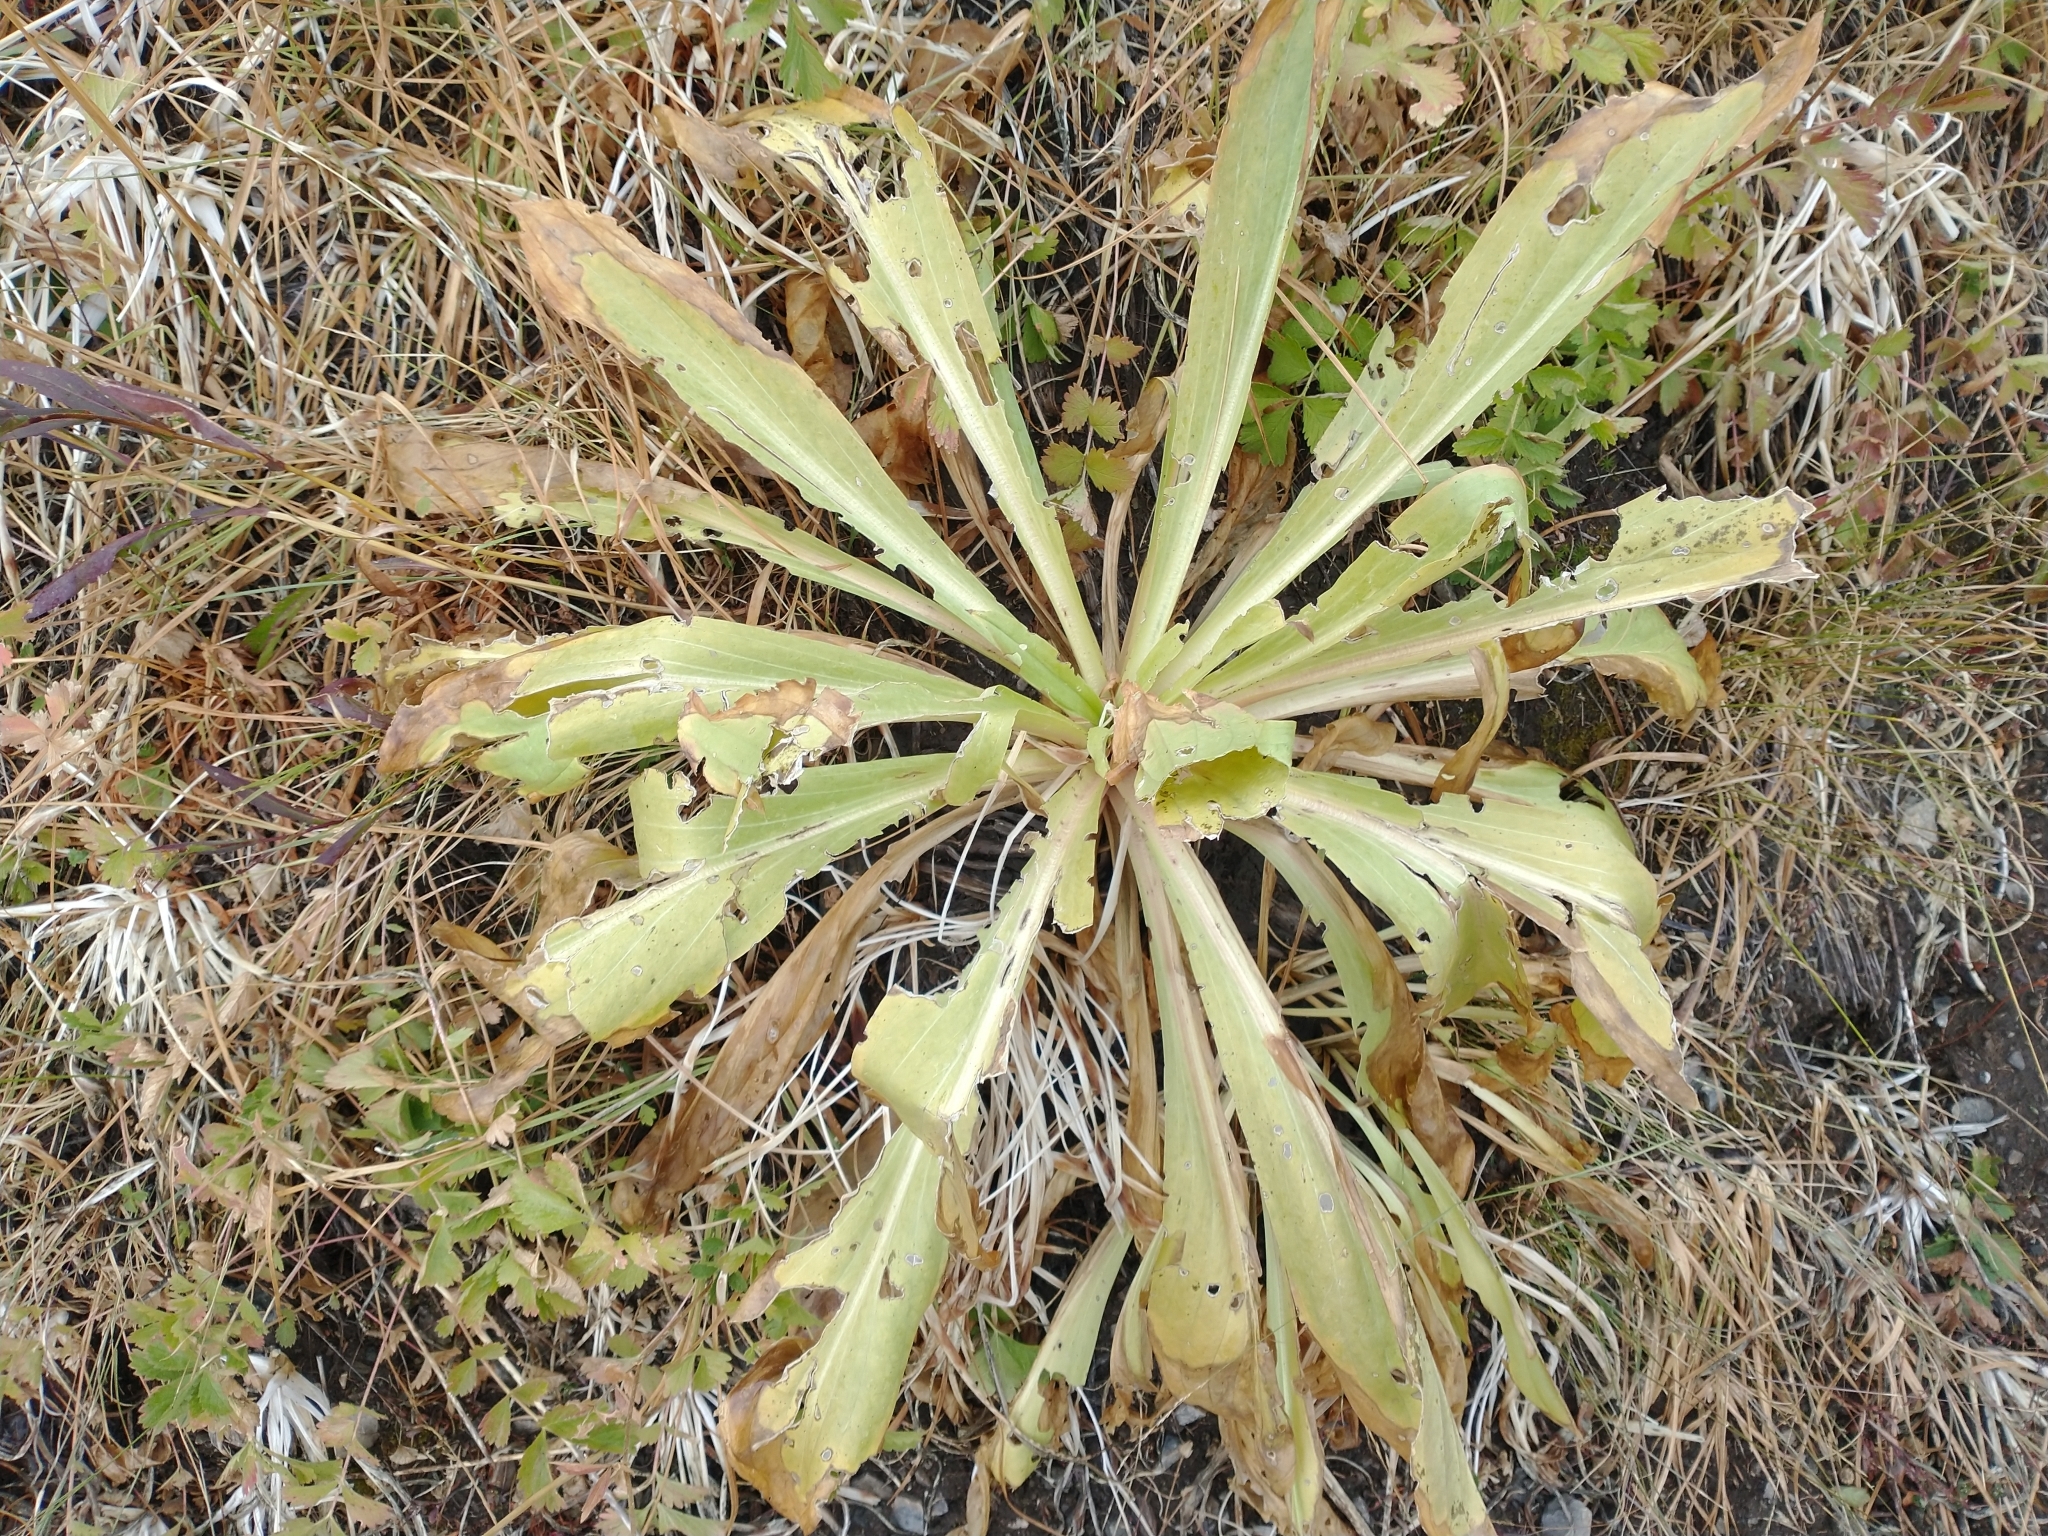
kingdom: Plantae
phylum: Tracheophyta
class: Magnoliopsida
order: Gentianales
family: Gentianaceae
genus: Frasera
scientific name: Frasera speciosa
